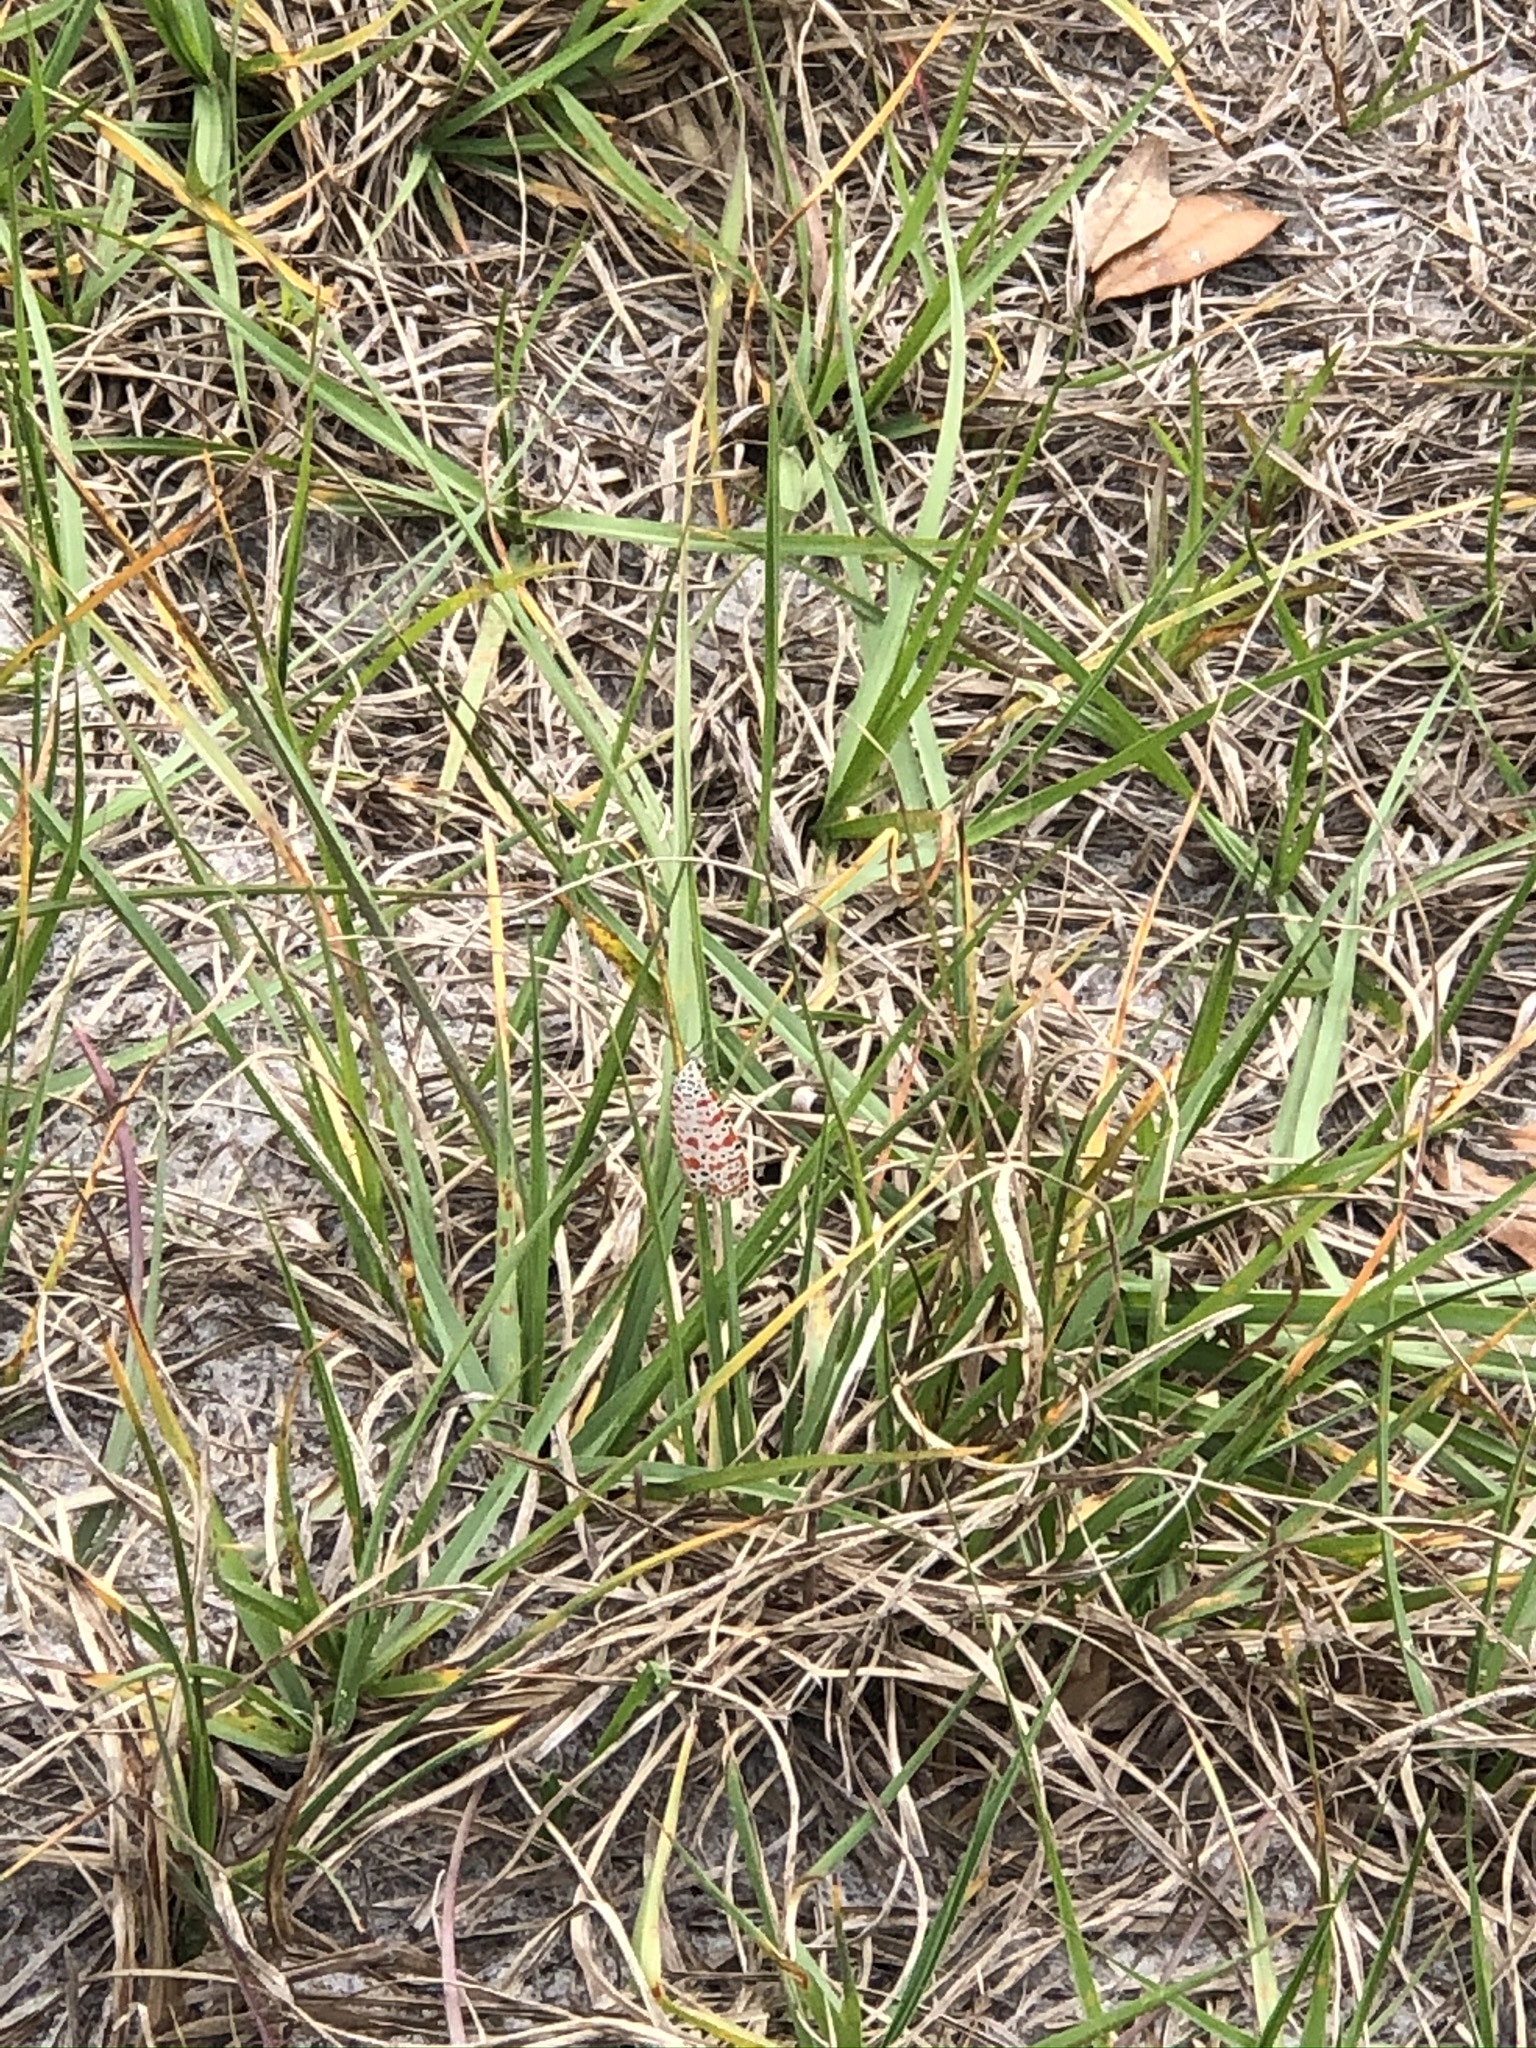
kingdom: Animalia
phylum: Arthropoda
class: Insecta
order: Lepidoptera
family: Erebidae
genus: Utetheisa
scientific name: Utetheisa ornatrix
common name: Beautiful utetheisa
